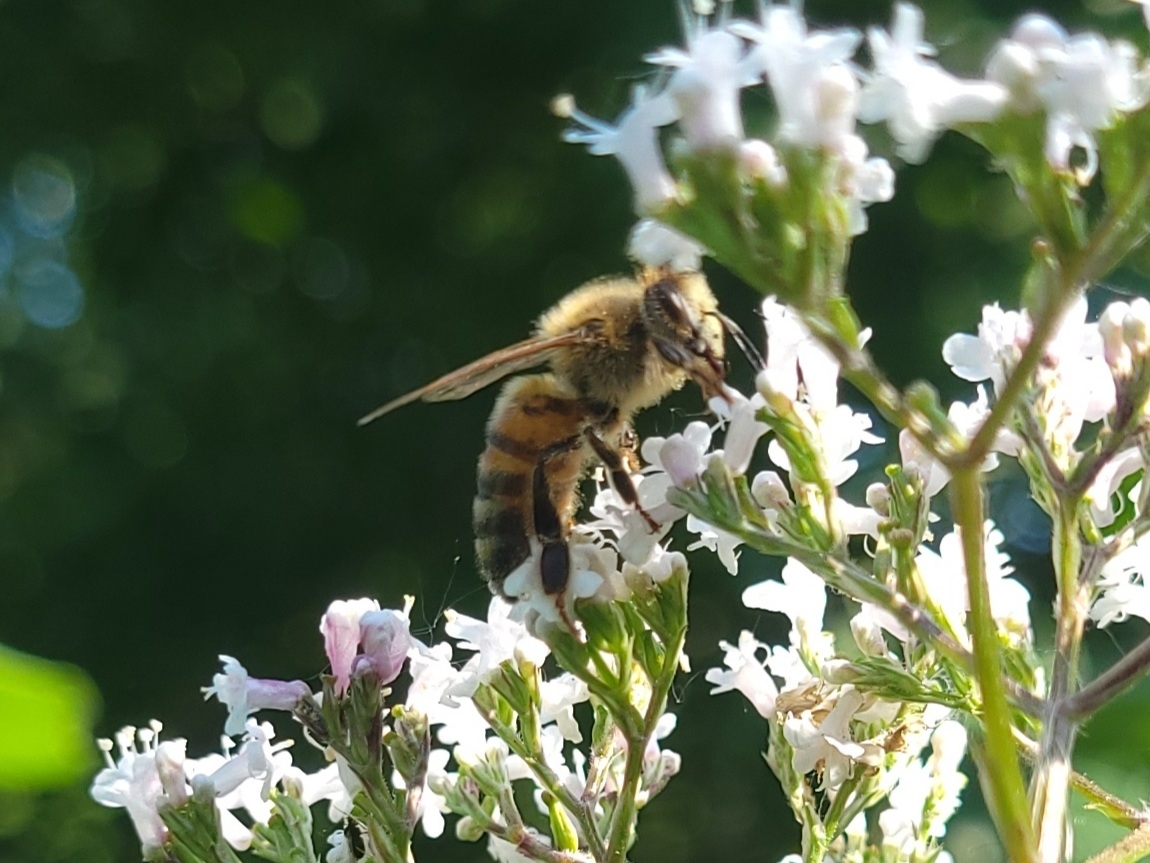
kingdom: Animalia
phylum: Arthropoda
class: Insecta
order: Hymenoptera
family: Apidae
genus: Apis
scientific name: Apis mellifera
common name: Honey bee
